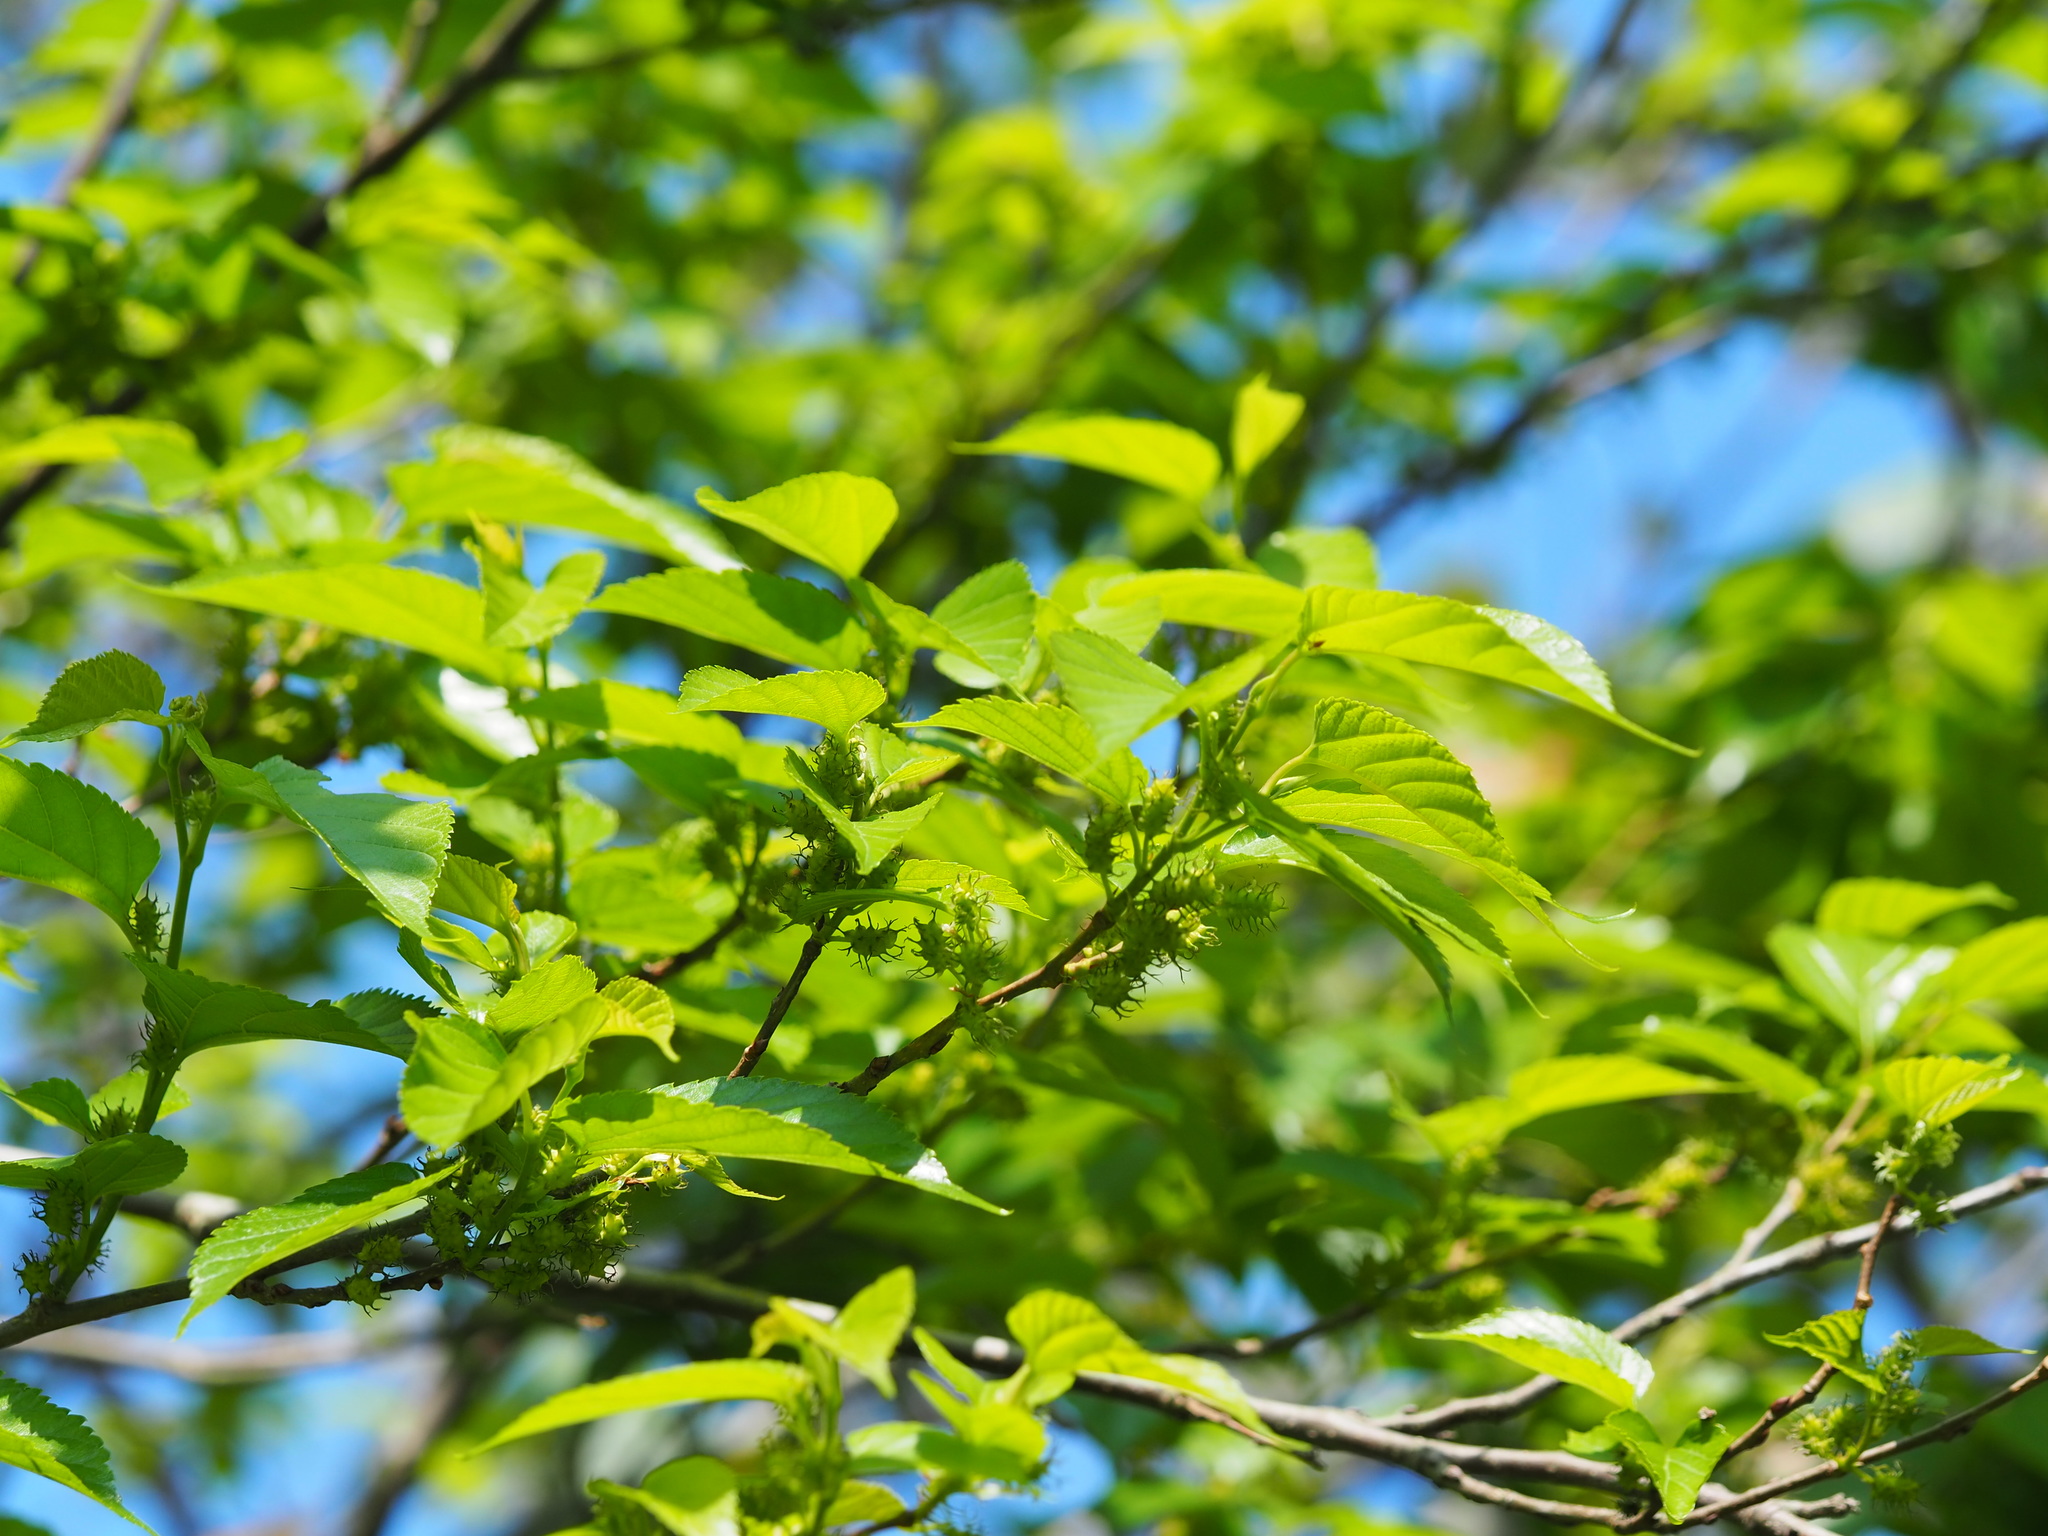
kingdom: Plantae
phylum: Tracheophyta
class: Magnoliopsida
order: Rosales
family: Moraceae
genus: Morus
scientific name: Morus indica
